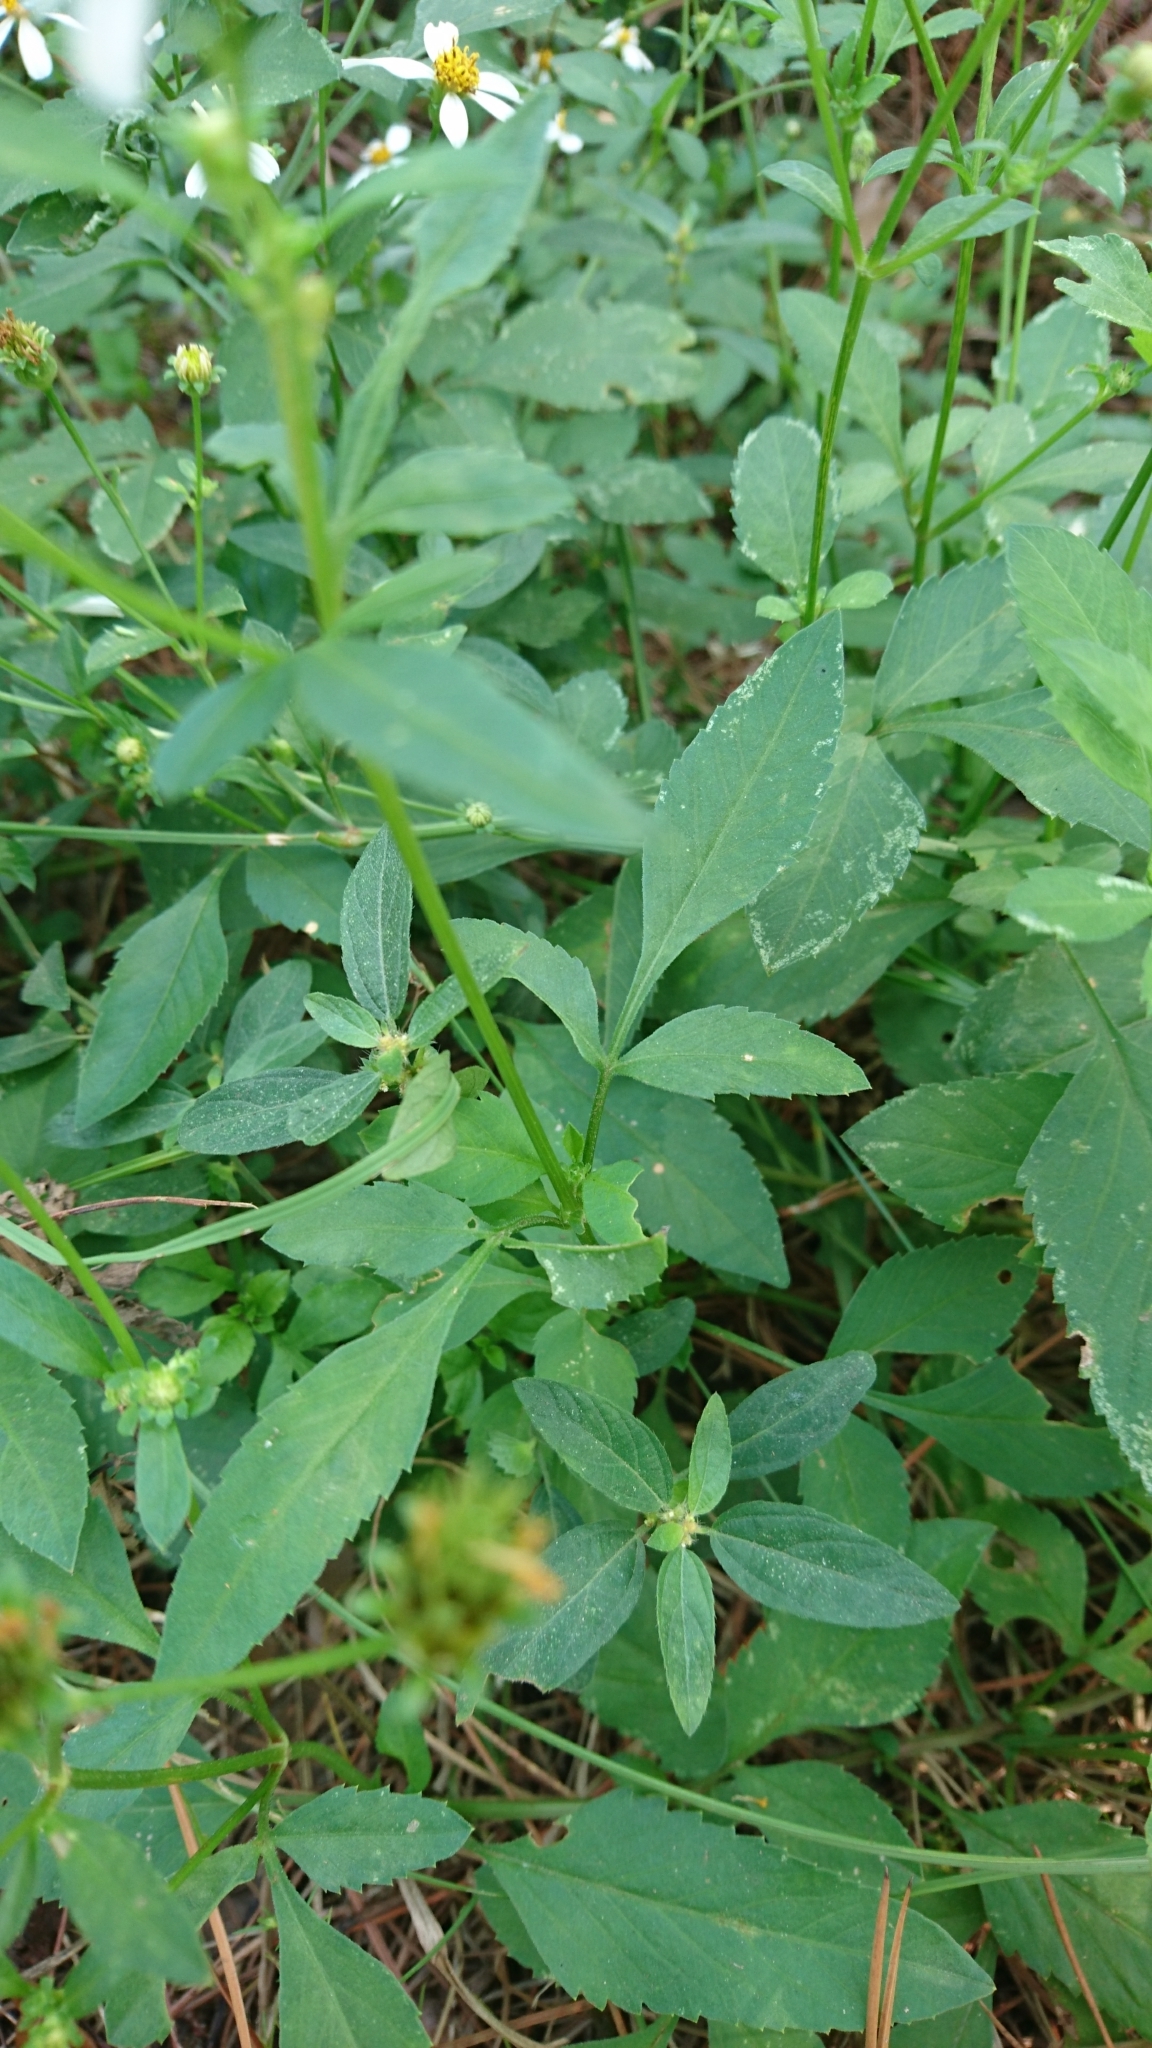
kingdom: Plantae
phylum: Tracheophyta
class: Magnoliopsida
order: Asterales
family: Asteraceae
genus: Bidens
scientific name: Bidens alba
